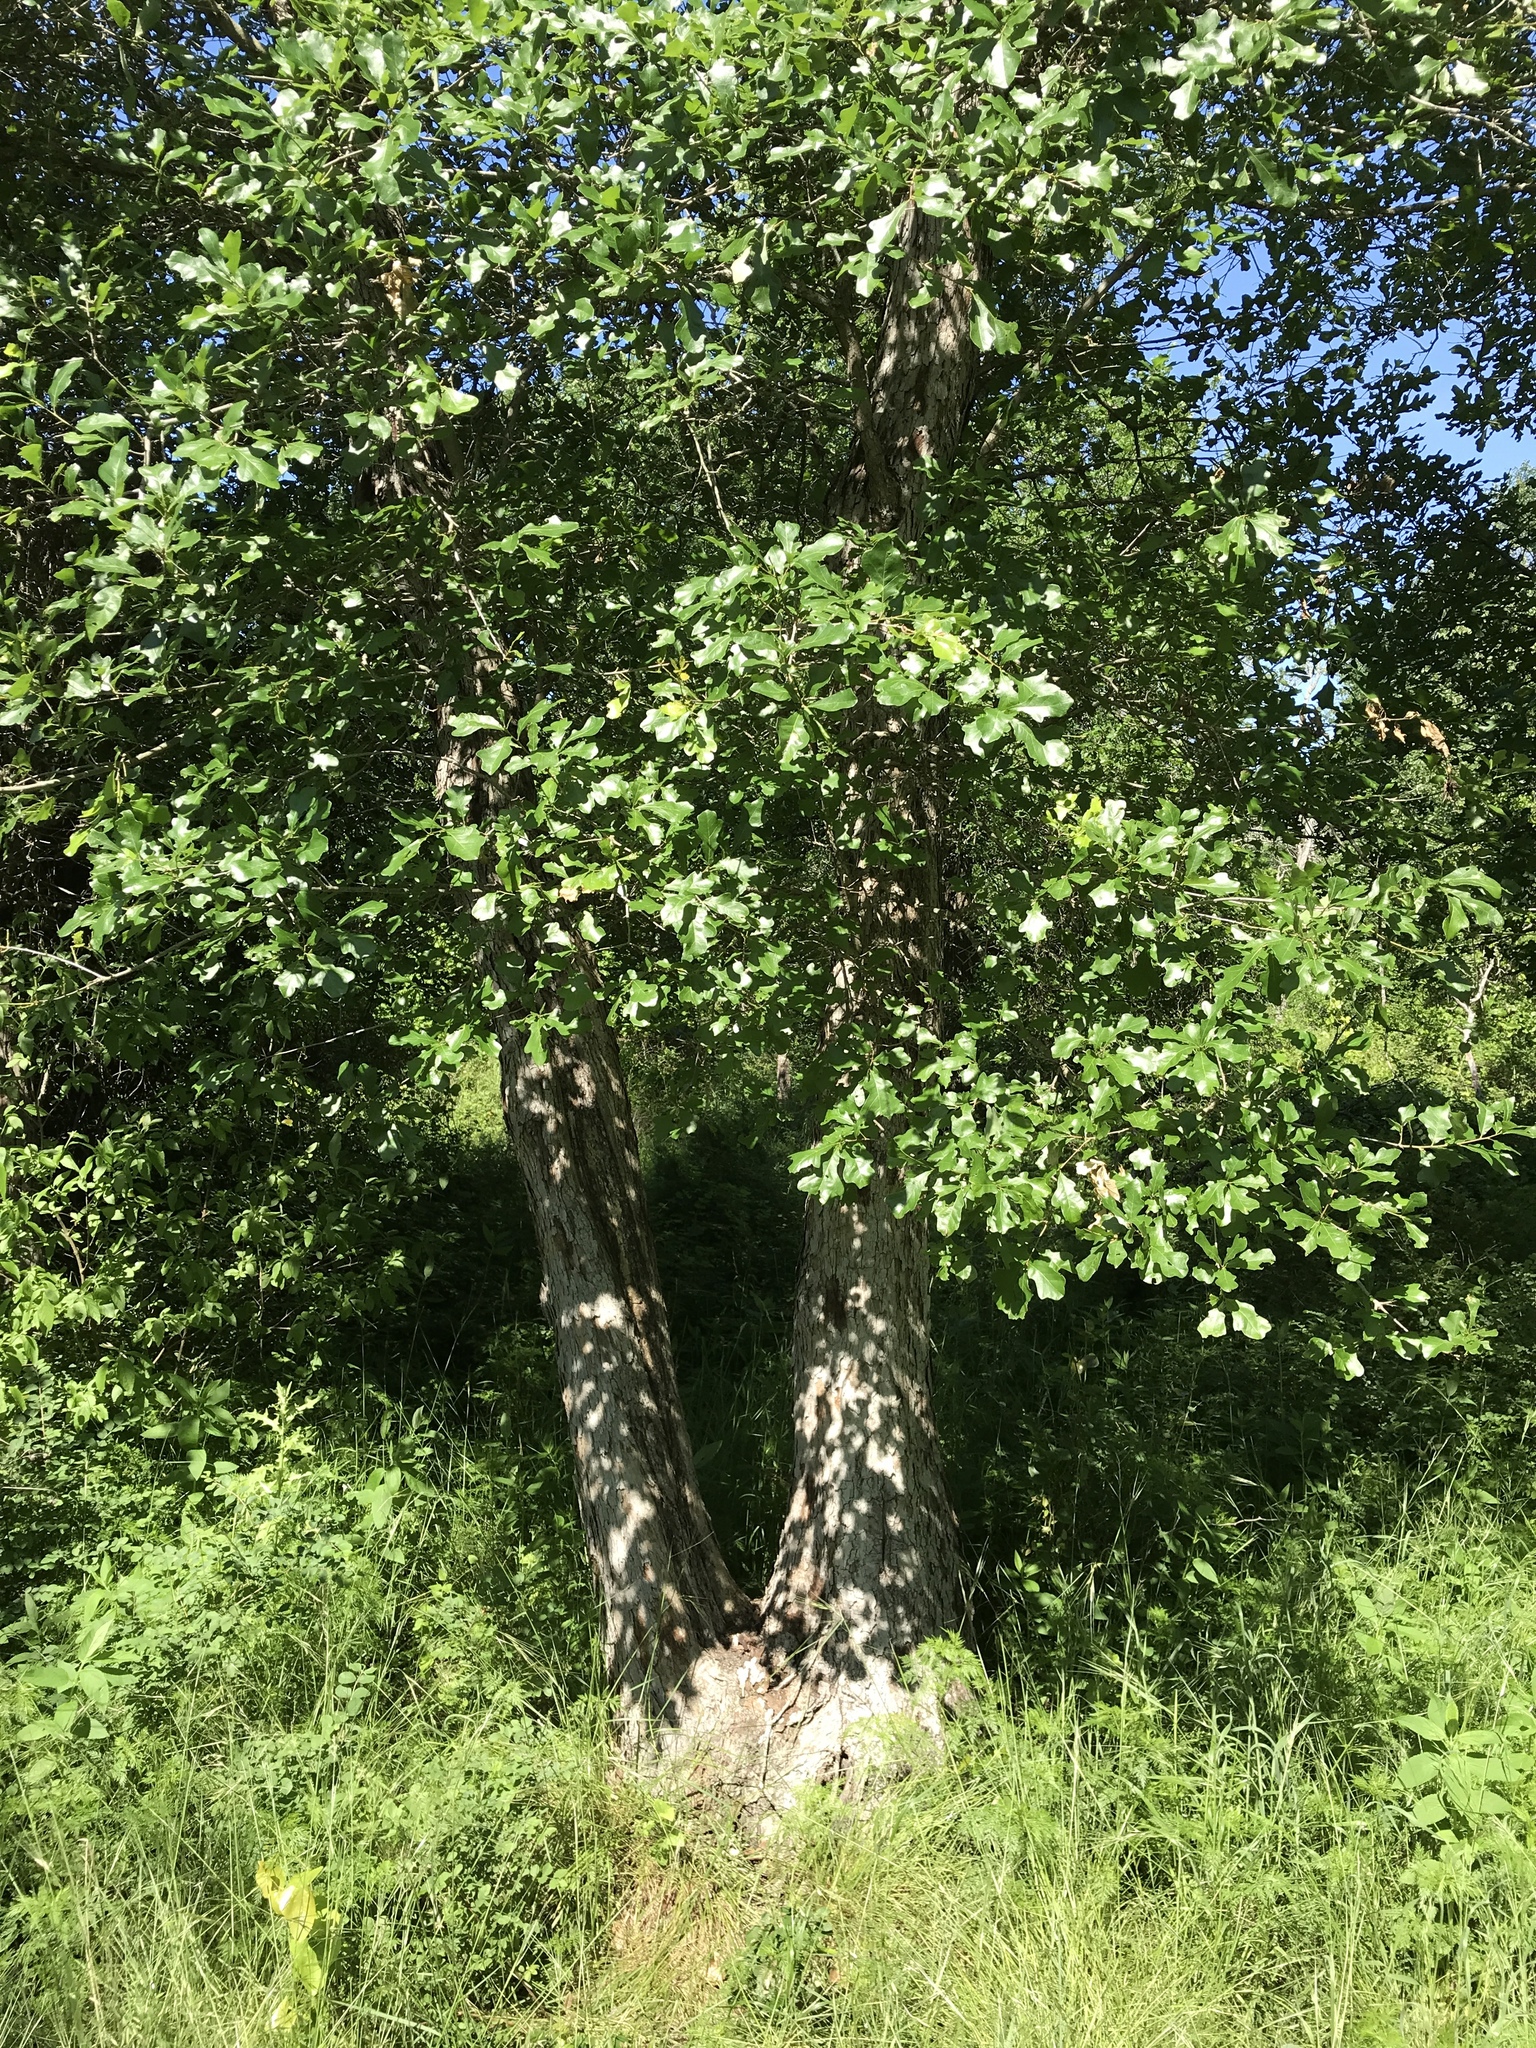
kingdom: Plantae
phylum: Tracheophyta
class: Magnoliopsida
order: Fagales
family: Fagaceae
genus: Quercus
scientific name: Quercus sinuata
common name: Durand oak
